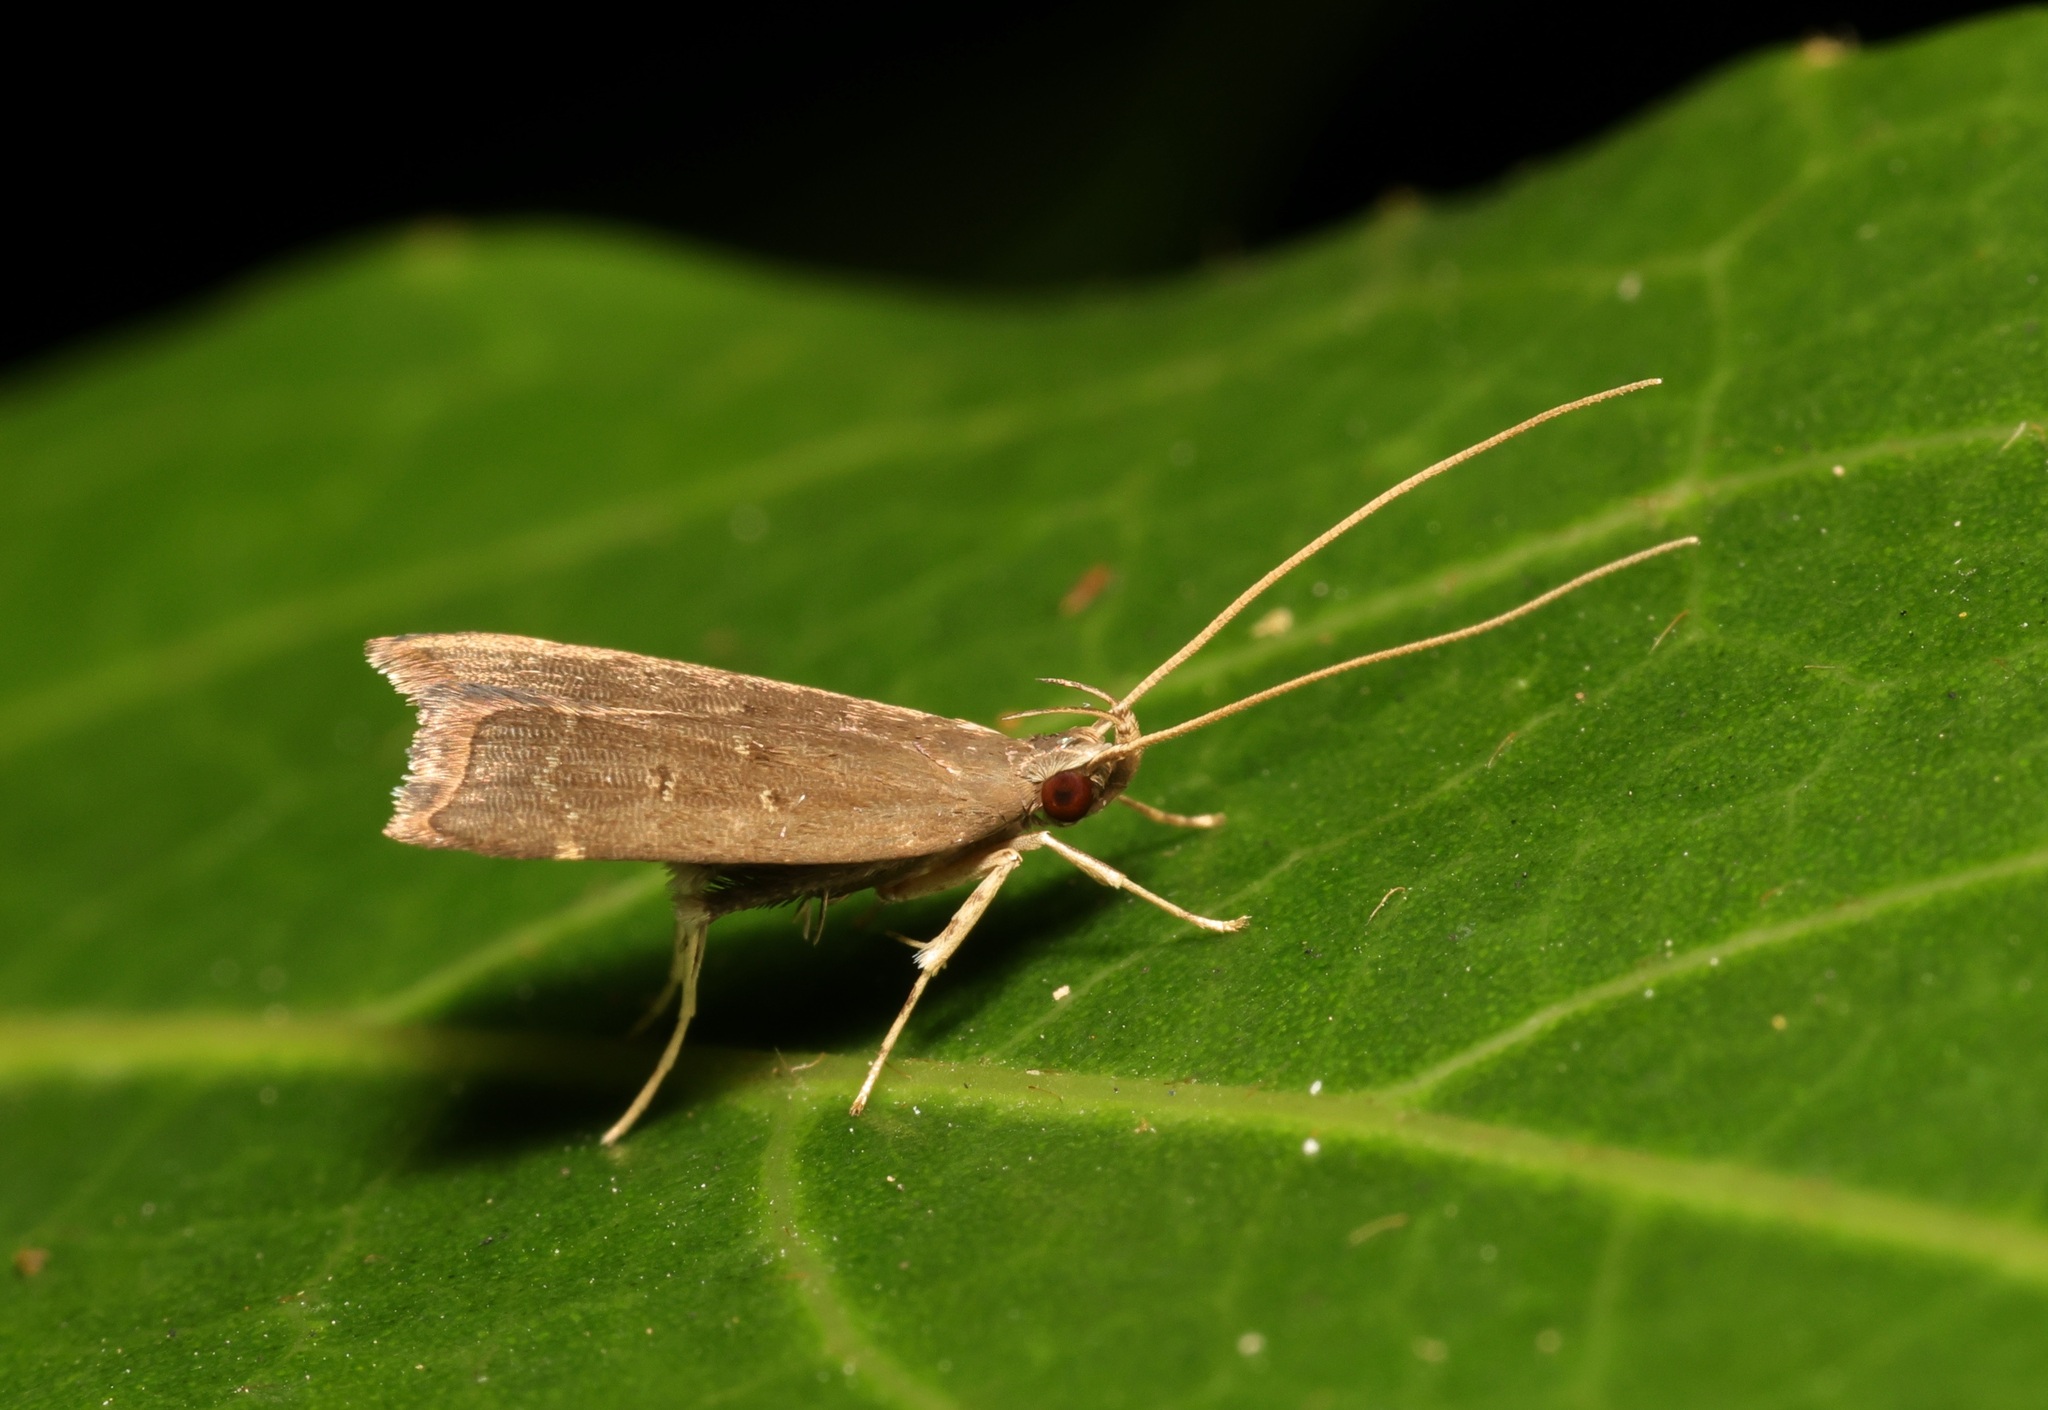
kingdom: Animalia
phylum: Arthropoda
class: Insecta
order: Lepidoptera
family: Lecithoceridae
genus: Torodora
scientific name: Torodora gemella
